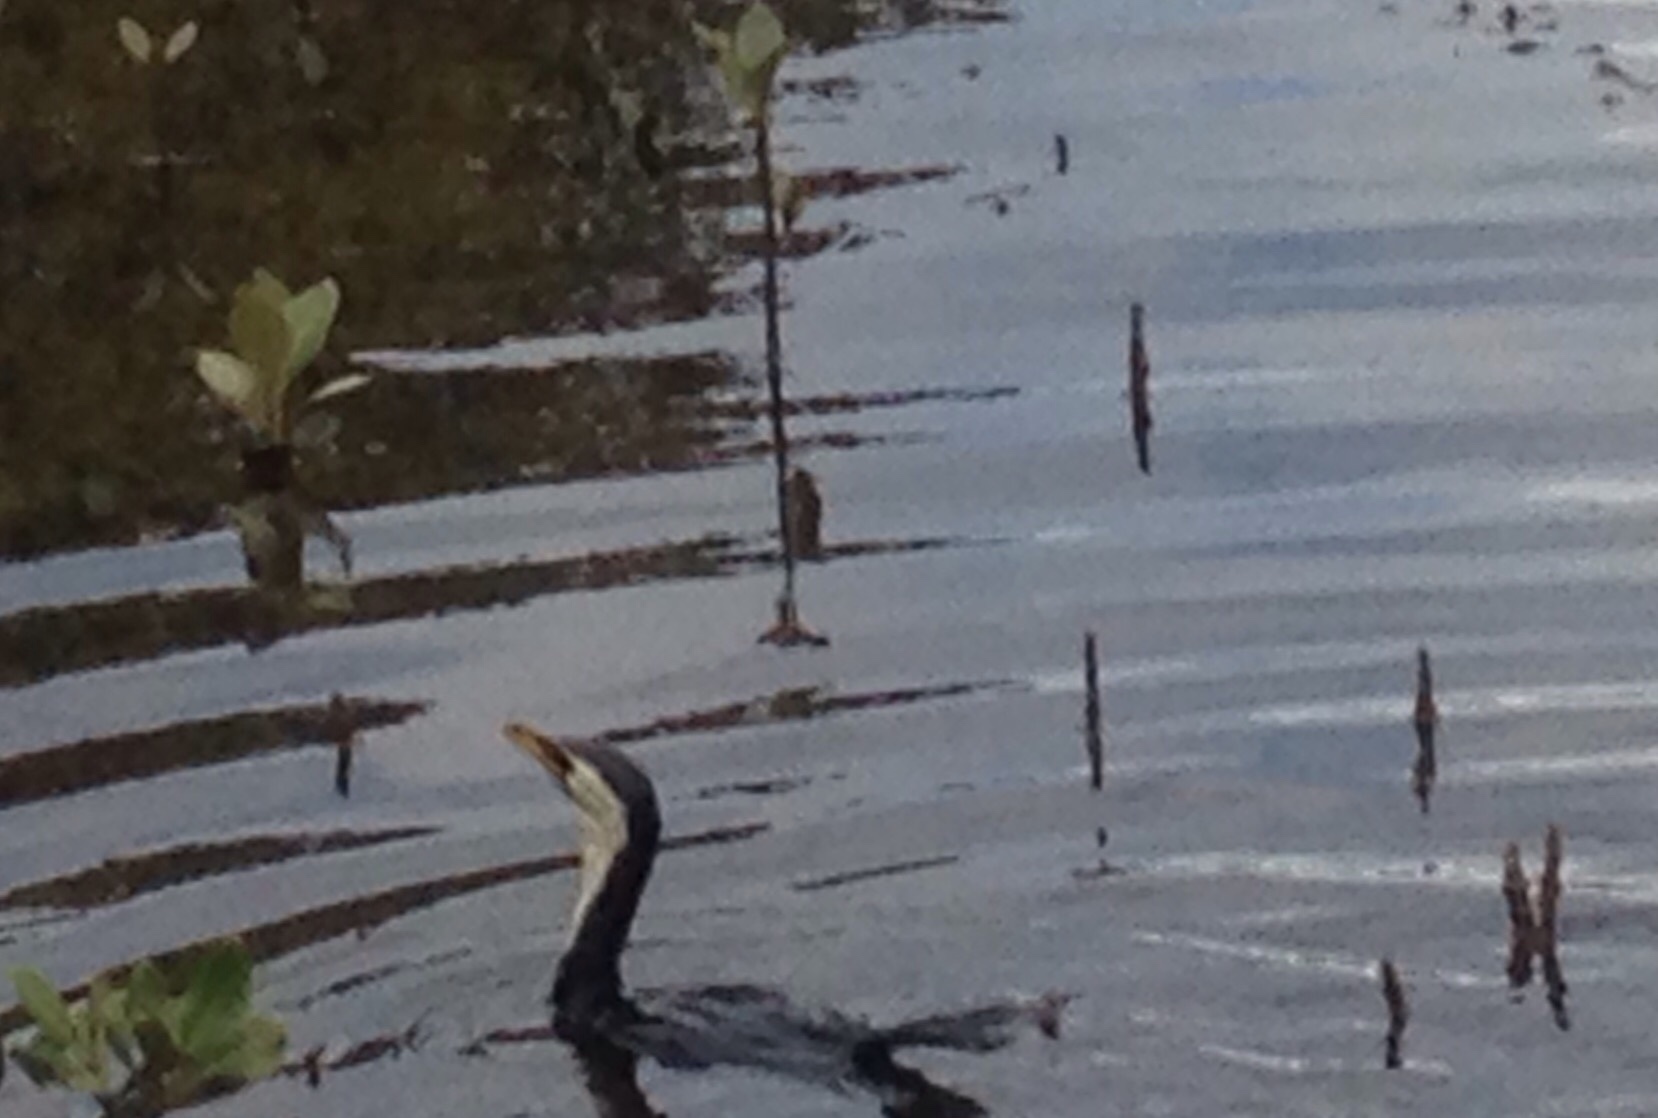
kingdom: Animalia
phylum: Chordata
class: Aves
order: Suliformes
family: Phalacrocoracidae
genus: Microcarbo
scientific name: Microcarbo melanoleucos
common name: Little pied cormorant
